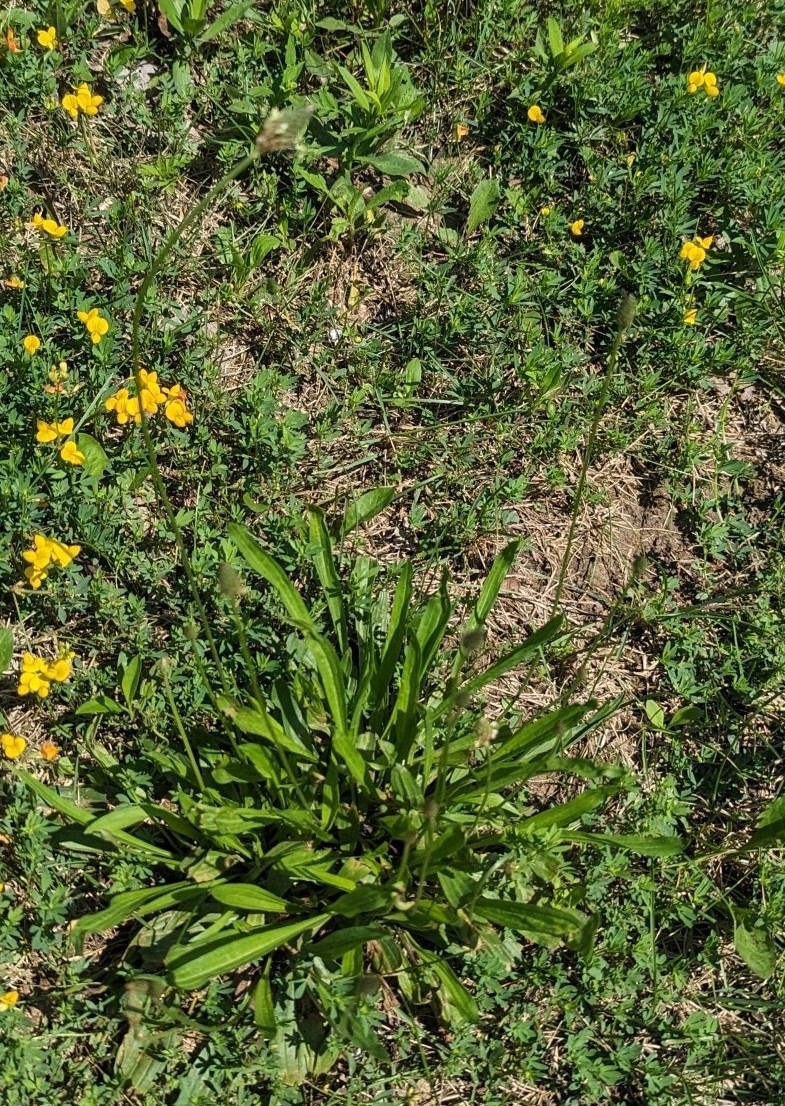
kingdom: Plantae
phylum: Tracheophyta
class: Magnoliopsida
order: Lamiales
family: Plantaginaceae
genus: Plantago
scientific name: Plantago lanceolata
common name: Ribwort plantain
